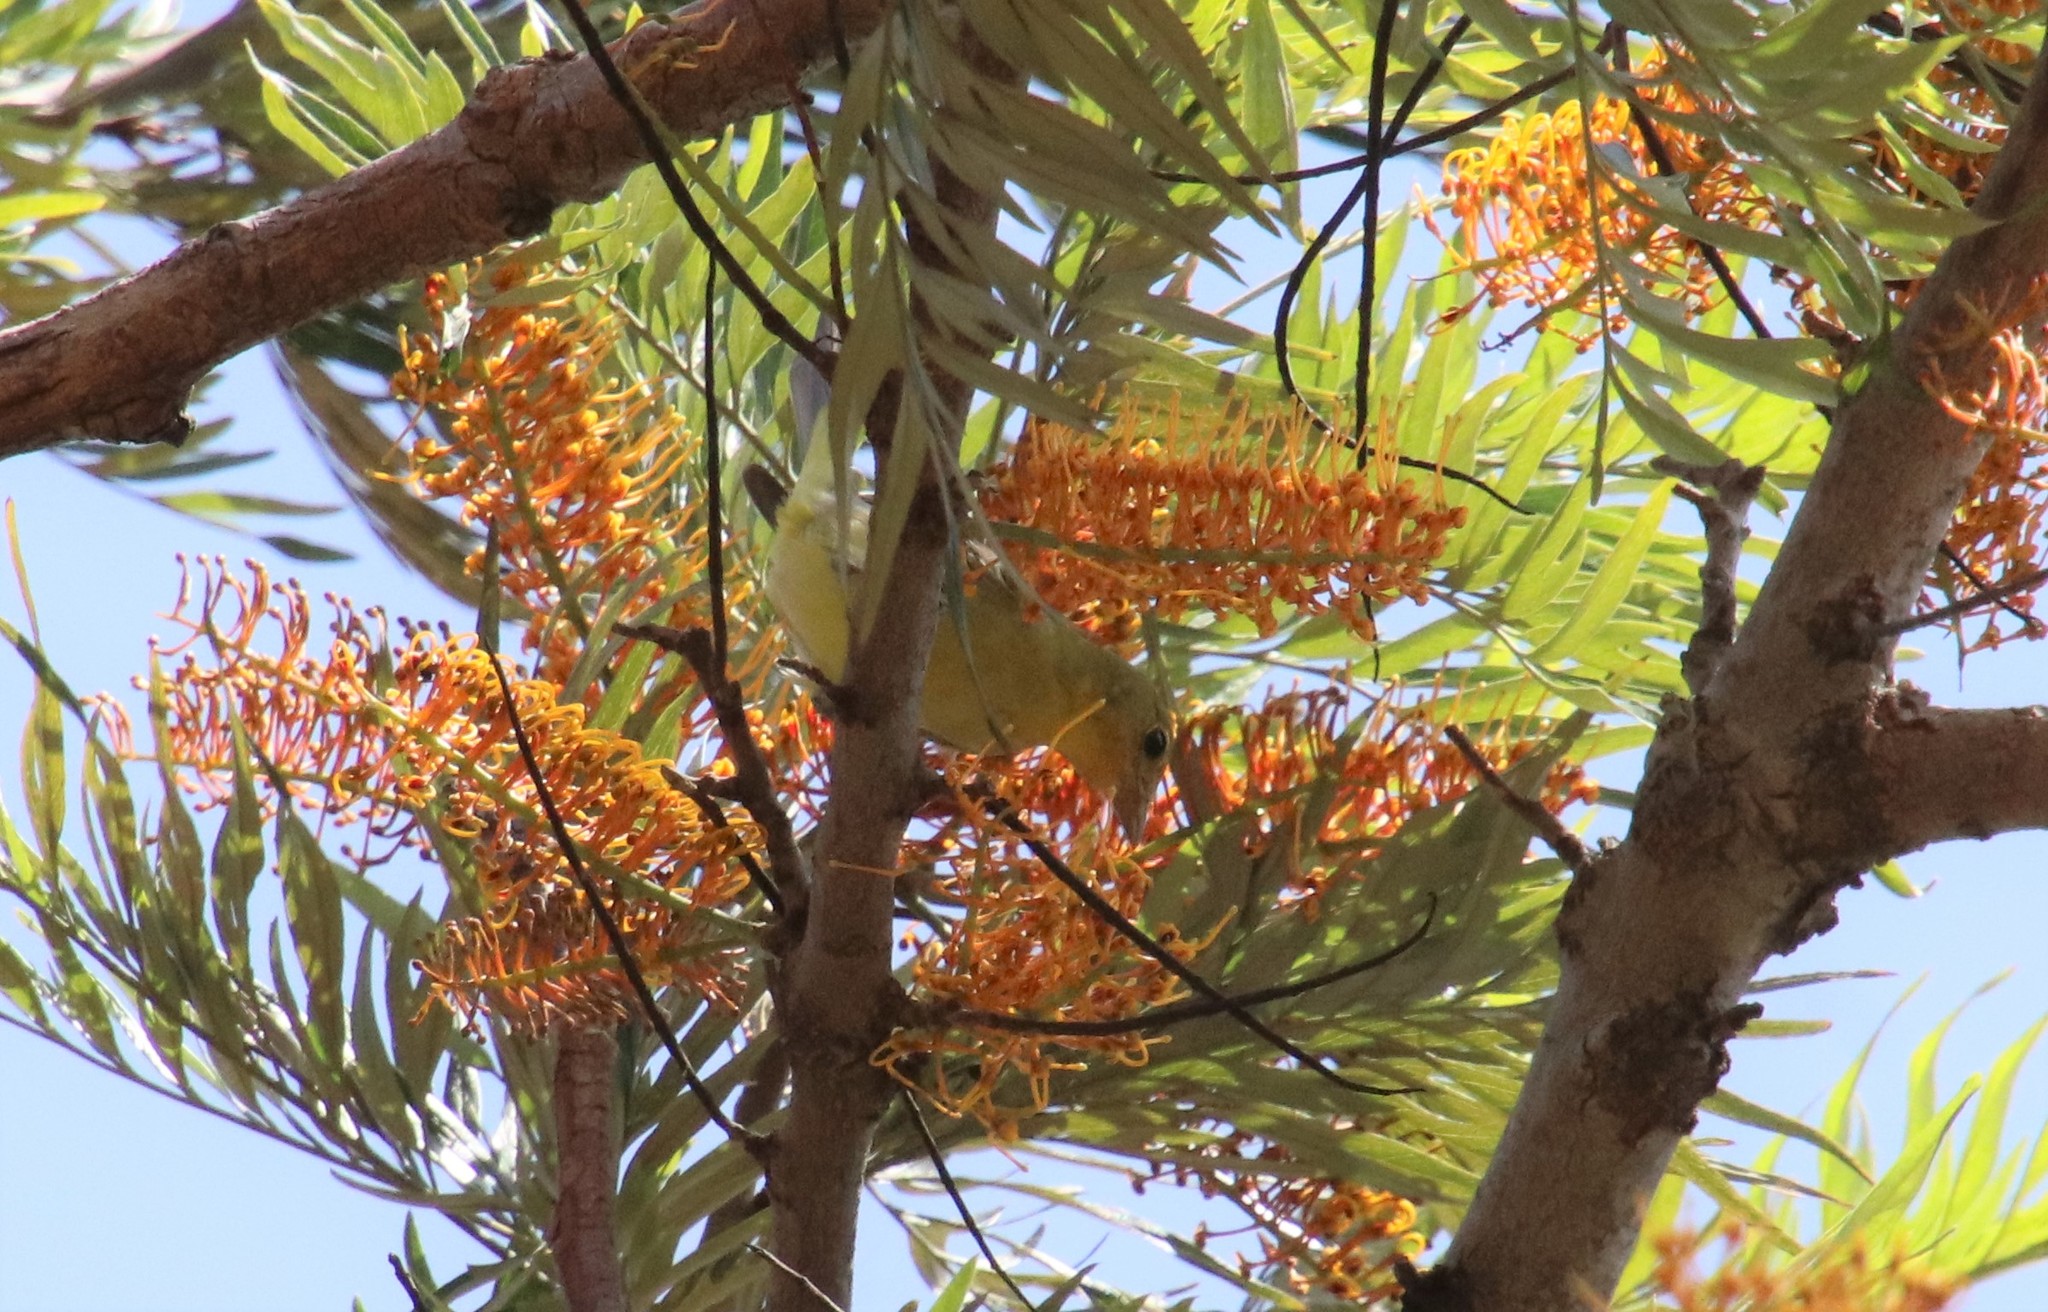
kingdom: Animalia
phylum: Chordata
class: Aves
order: Passeriformes
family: Cardinalidae
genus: Piranga
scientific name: Piranga ludoviciana
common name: Western tanager
